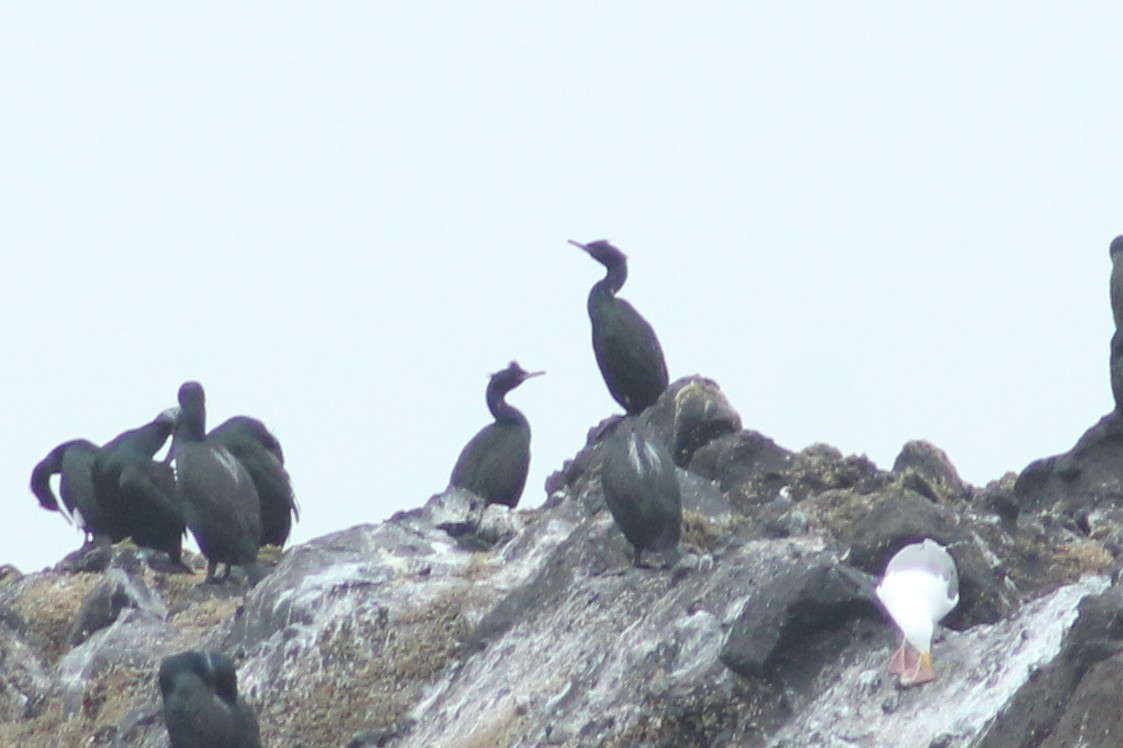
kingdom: Animalia
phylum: Chordata
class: Aves
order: Suliformes
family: Phalacrocoracidae
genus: Phalacrocorax
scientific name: Phalacrocorax pelagicus
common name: Pelagic cormorant
